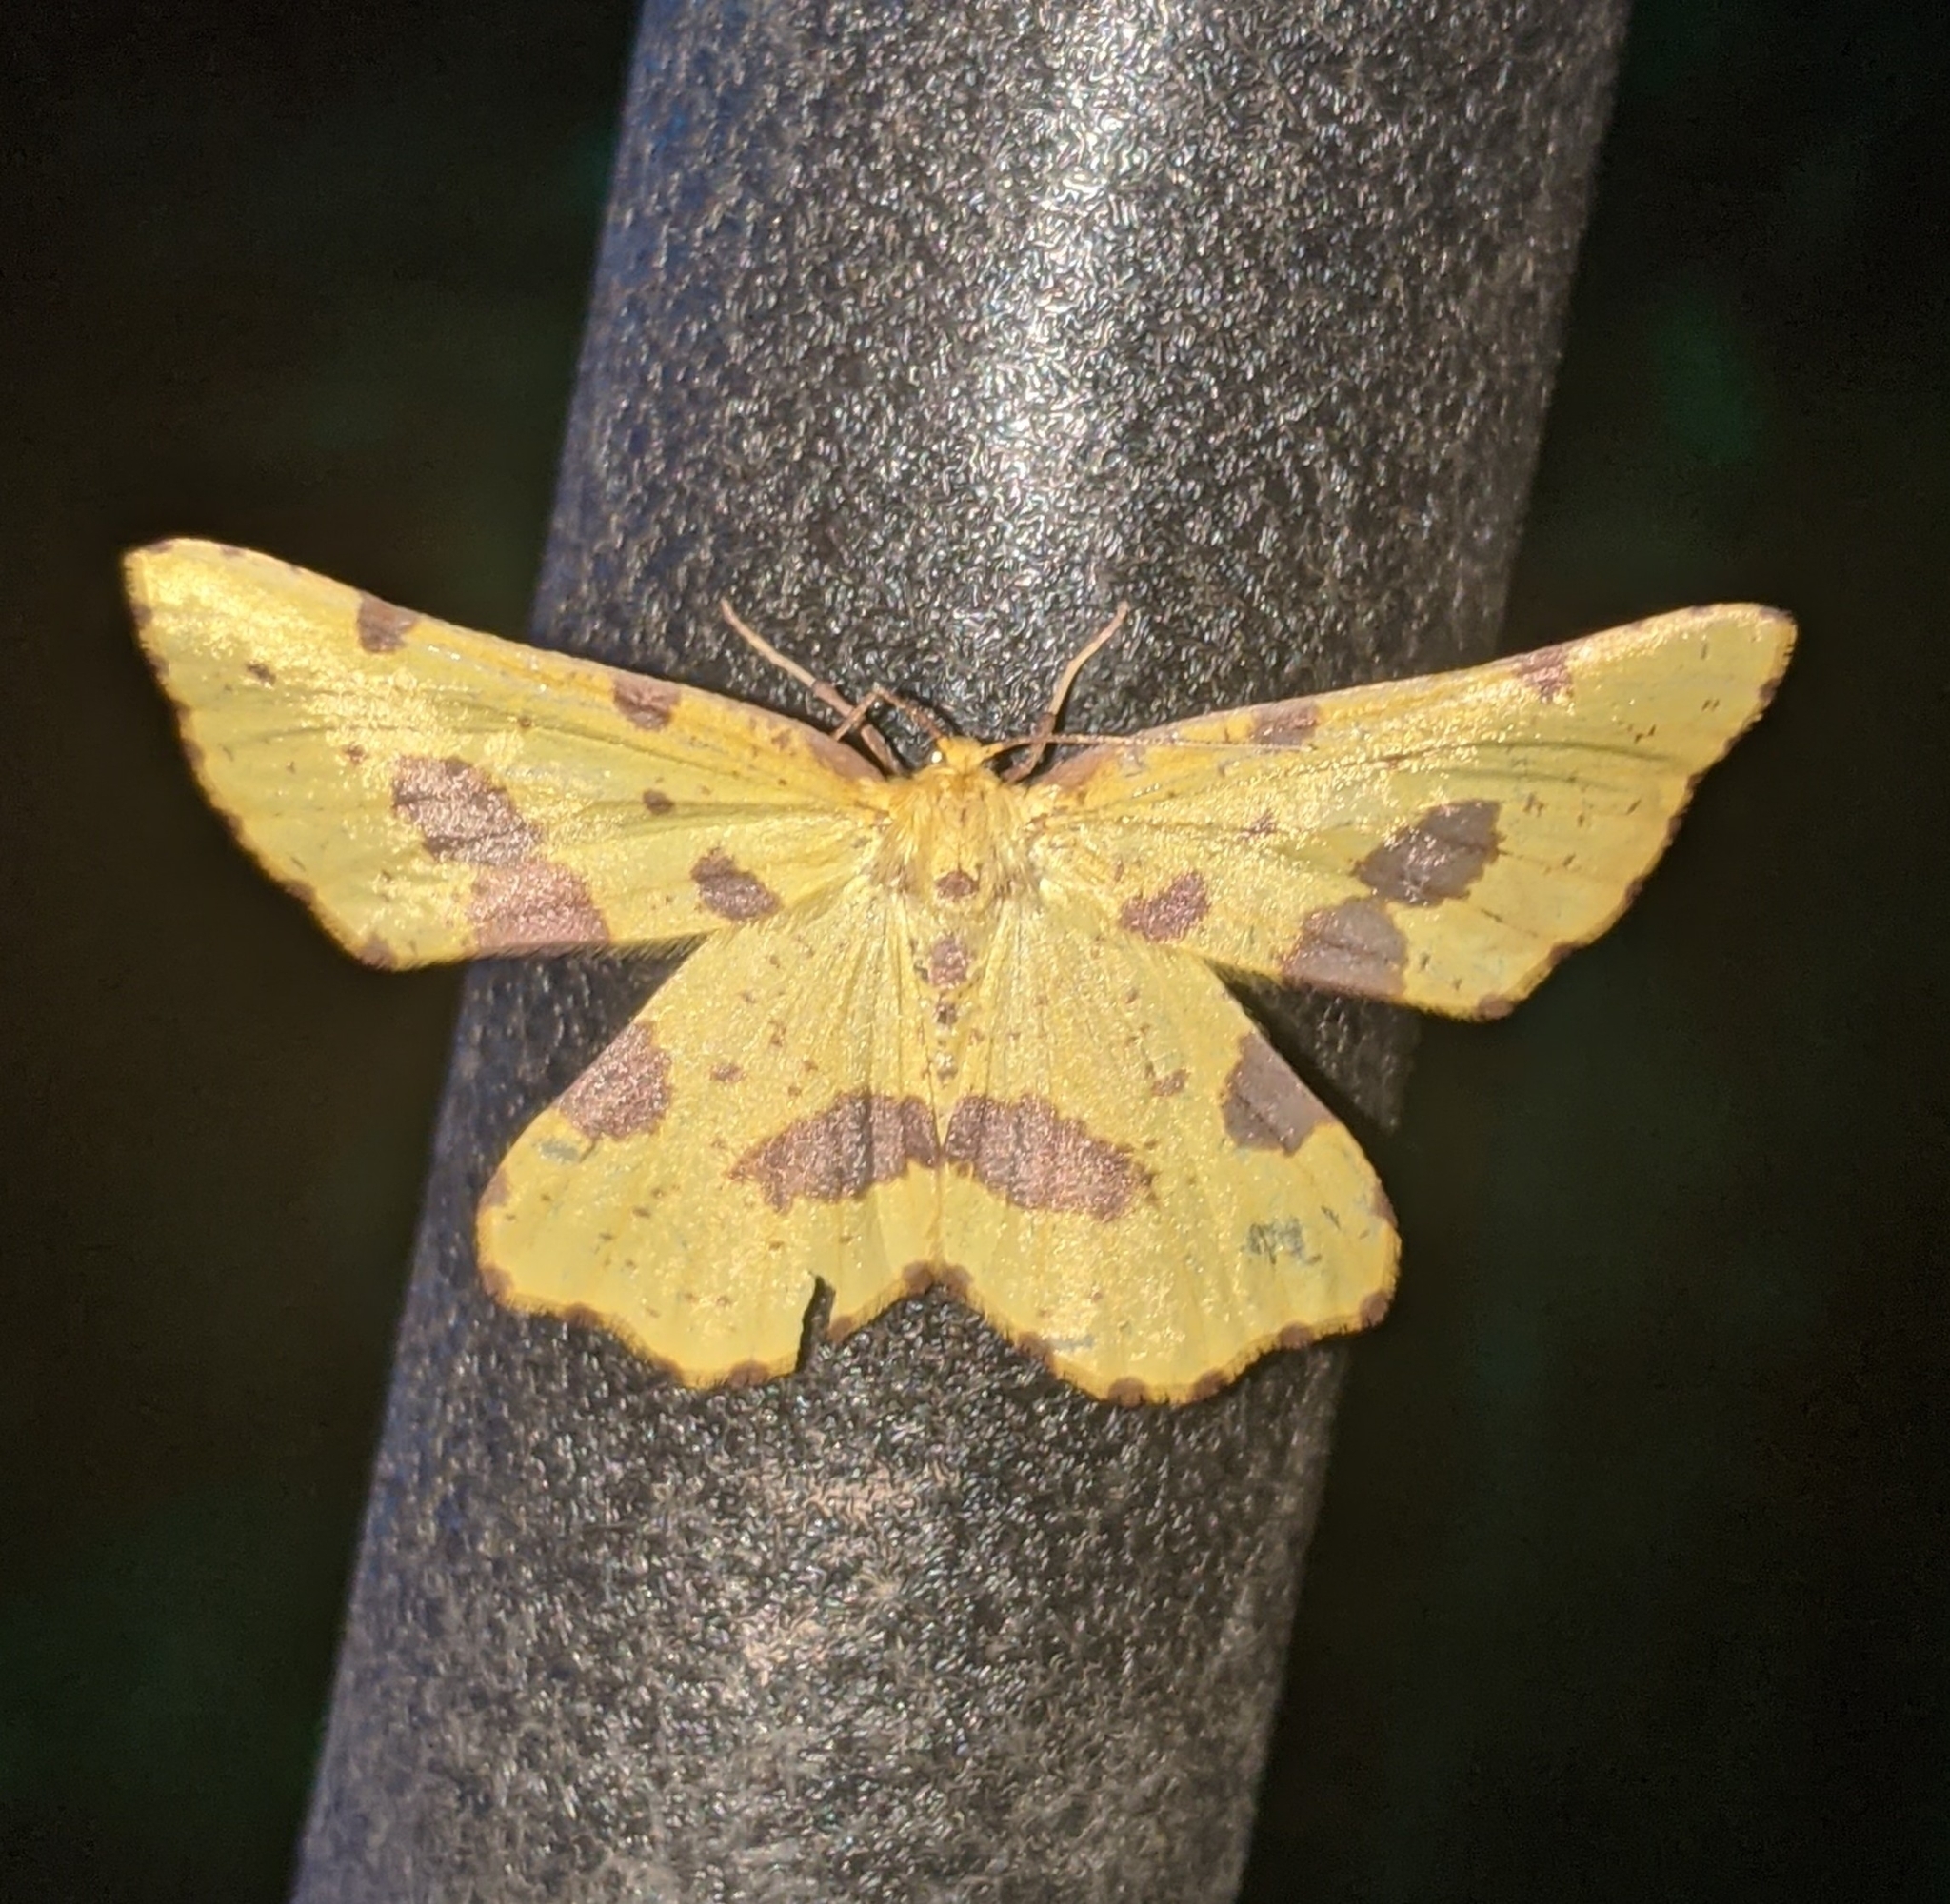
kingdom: Animalia
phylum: Arthropoda
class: Insecta
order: Lepidoptera
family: Geometridae
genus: Xanthotype
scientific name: Xanthotype
